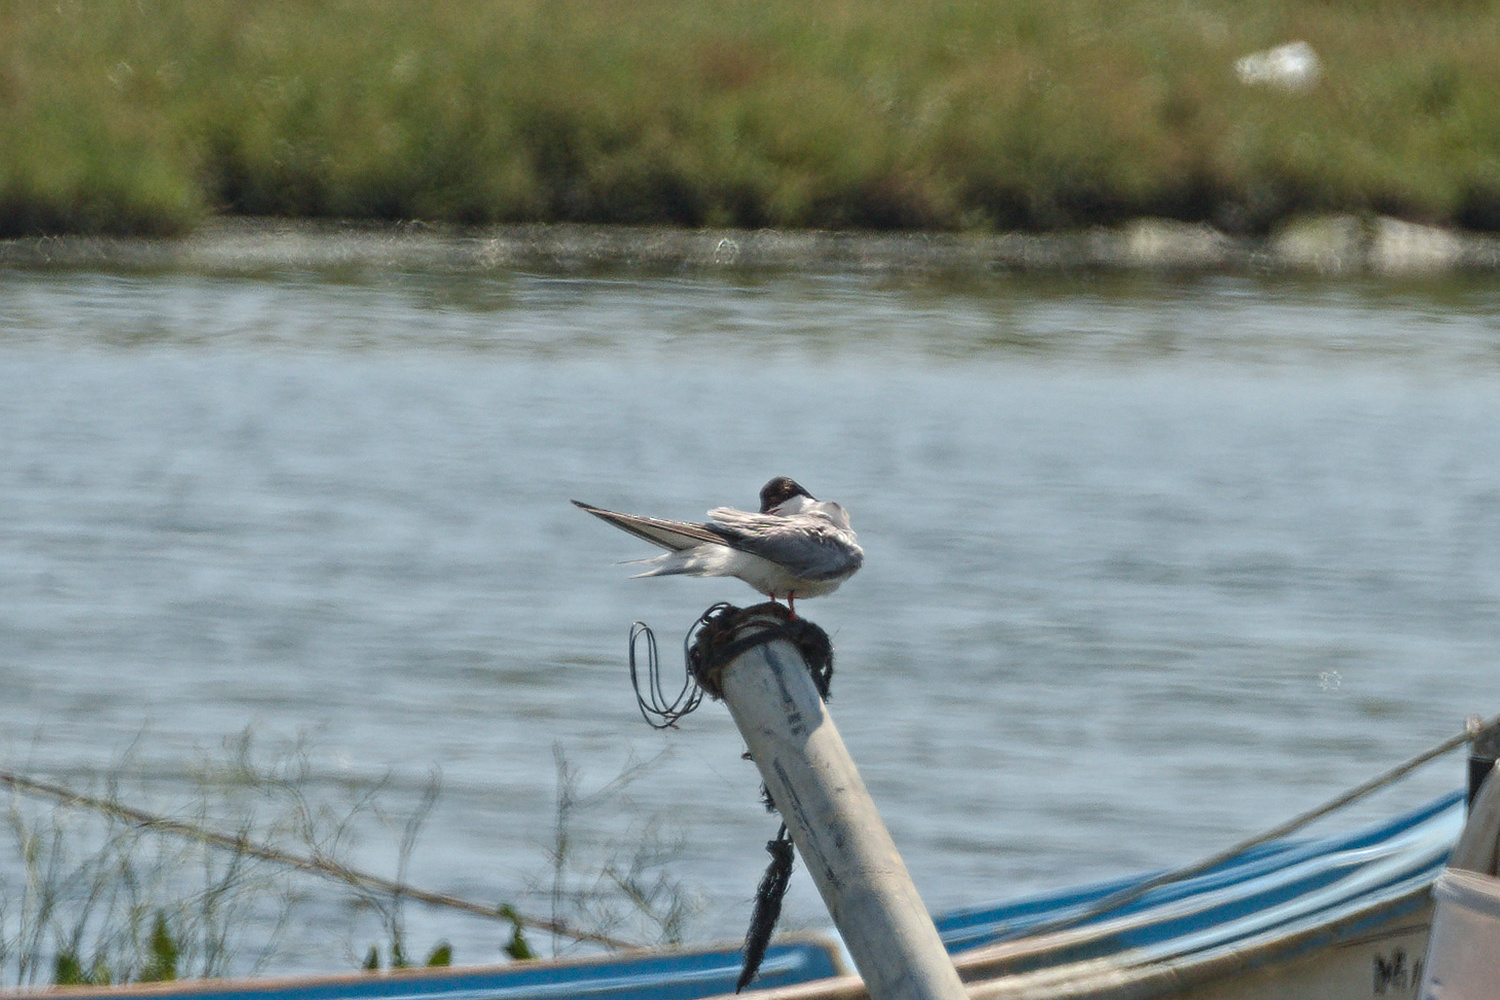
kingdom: Animalia
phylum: Chordata
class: Aves
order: Charadriiformes
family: Laridae
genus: Sterna
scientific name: Sterna hirundo
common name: Common tern
